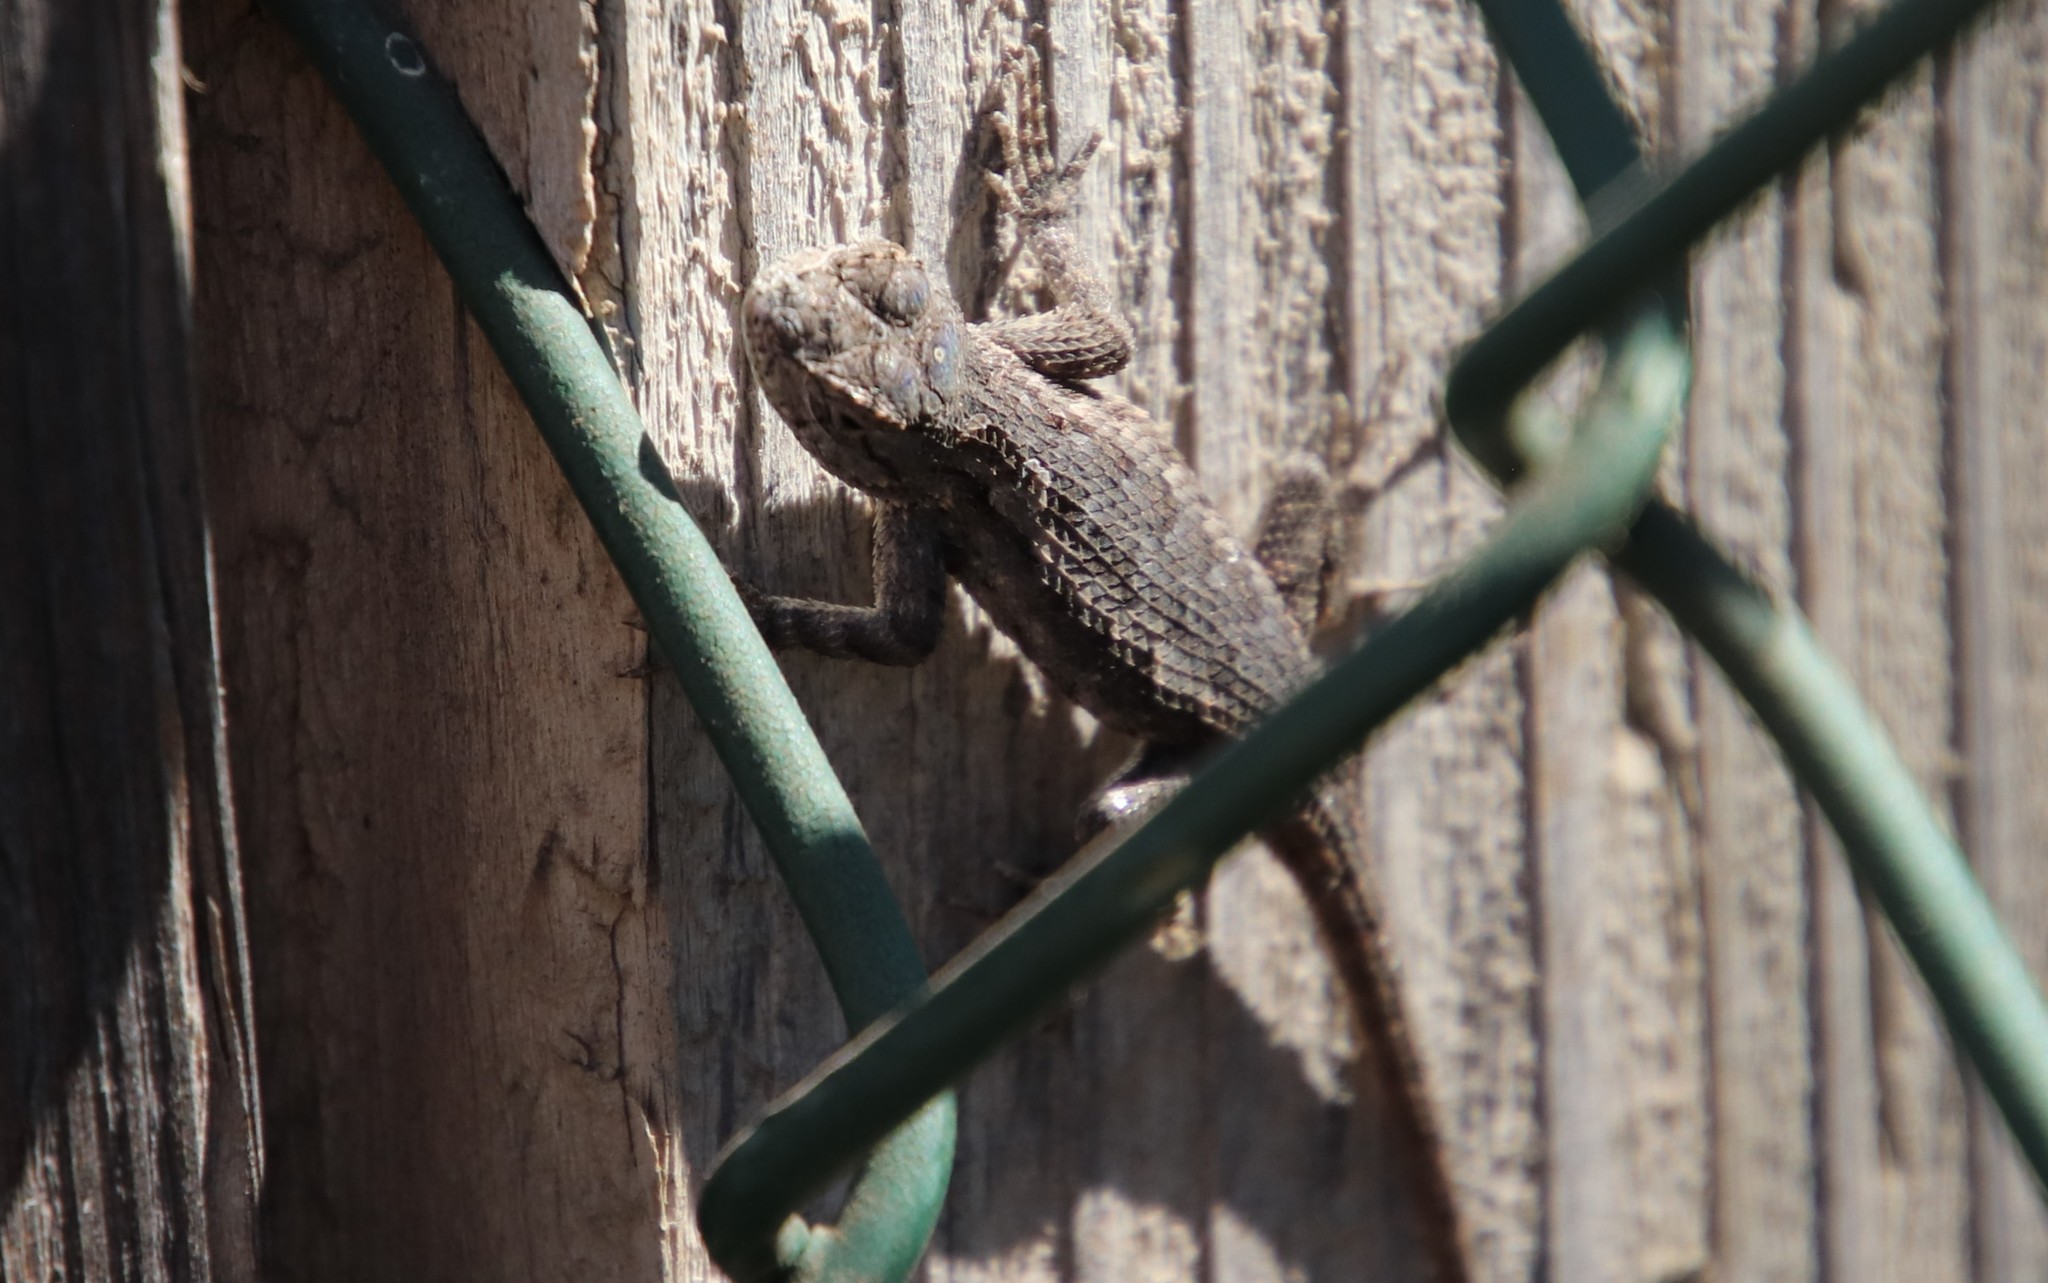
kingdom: Animalia
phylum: Chordata
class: Squamata
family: Phrynosomatidae
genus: Sceloporus
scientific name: Sceloporus occidentalis
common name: Western fence lizard
